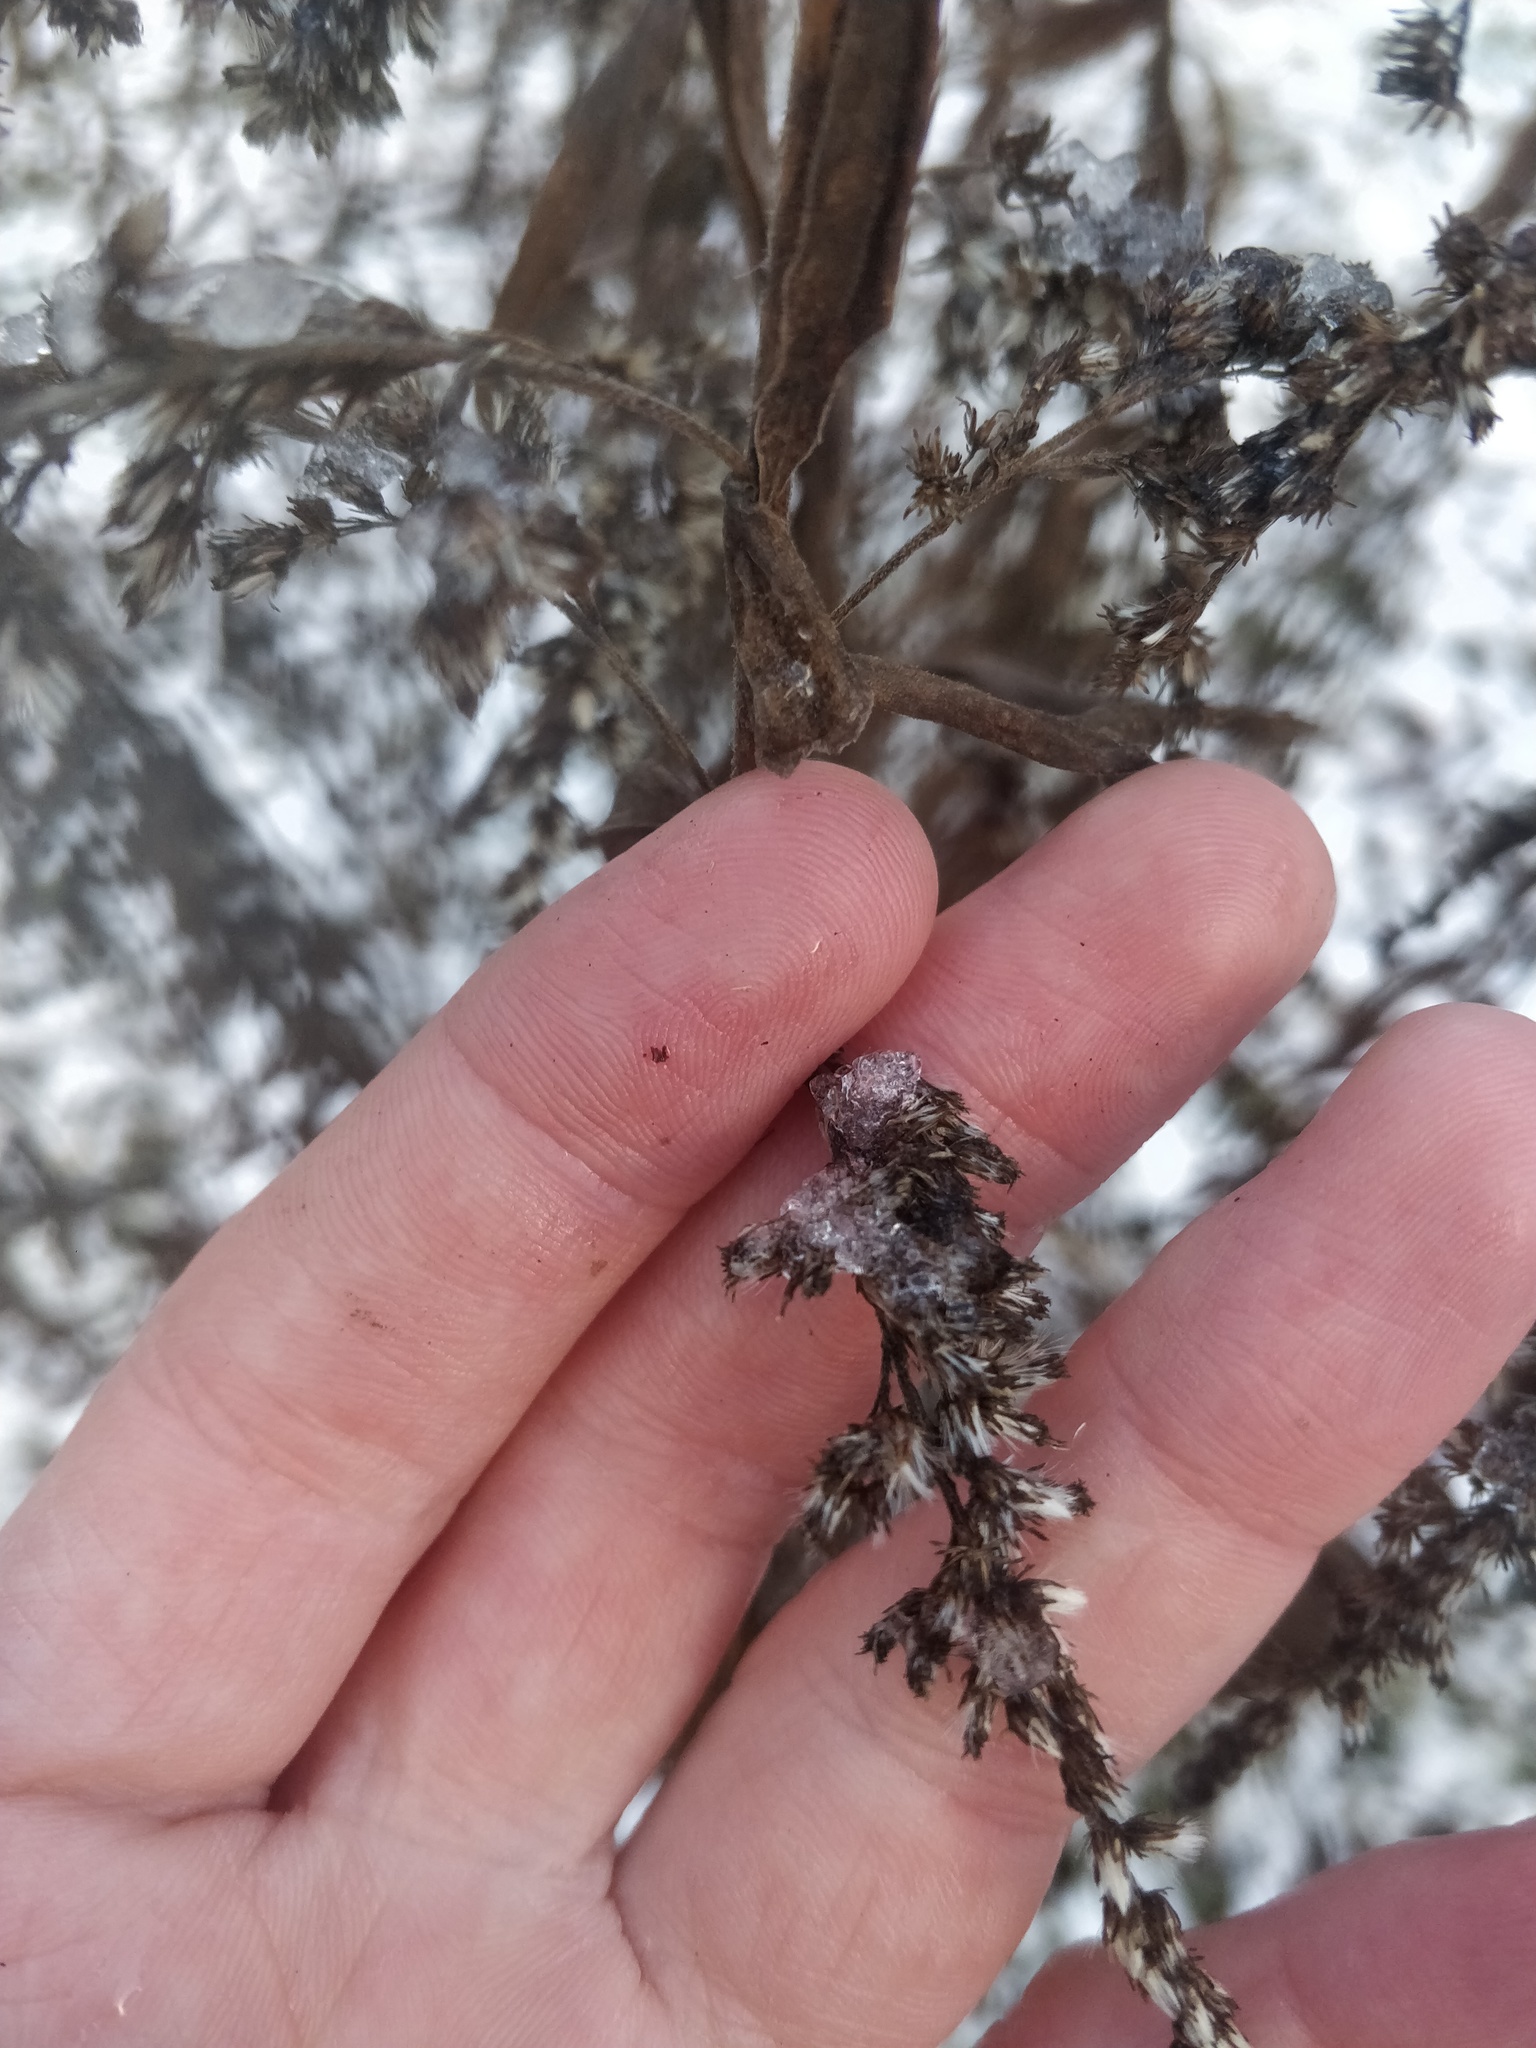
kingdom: Plantae
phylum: Tracheophyta
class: Magnoliopsida
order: Asterales
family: Asteraceae
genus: Solidago
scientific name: Solidago canadensis
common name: Canada goldenrod
